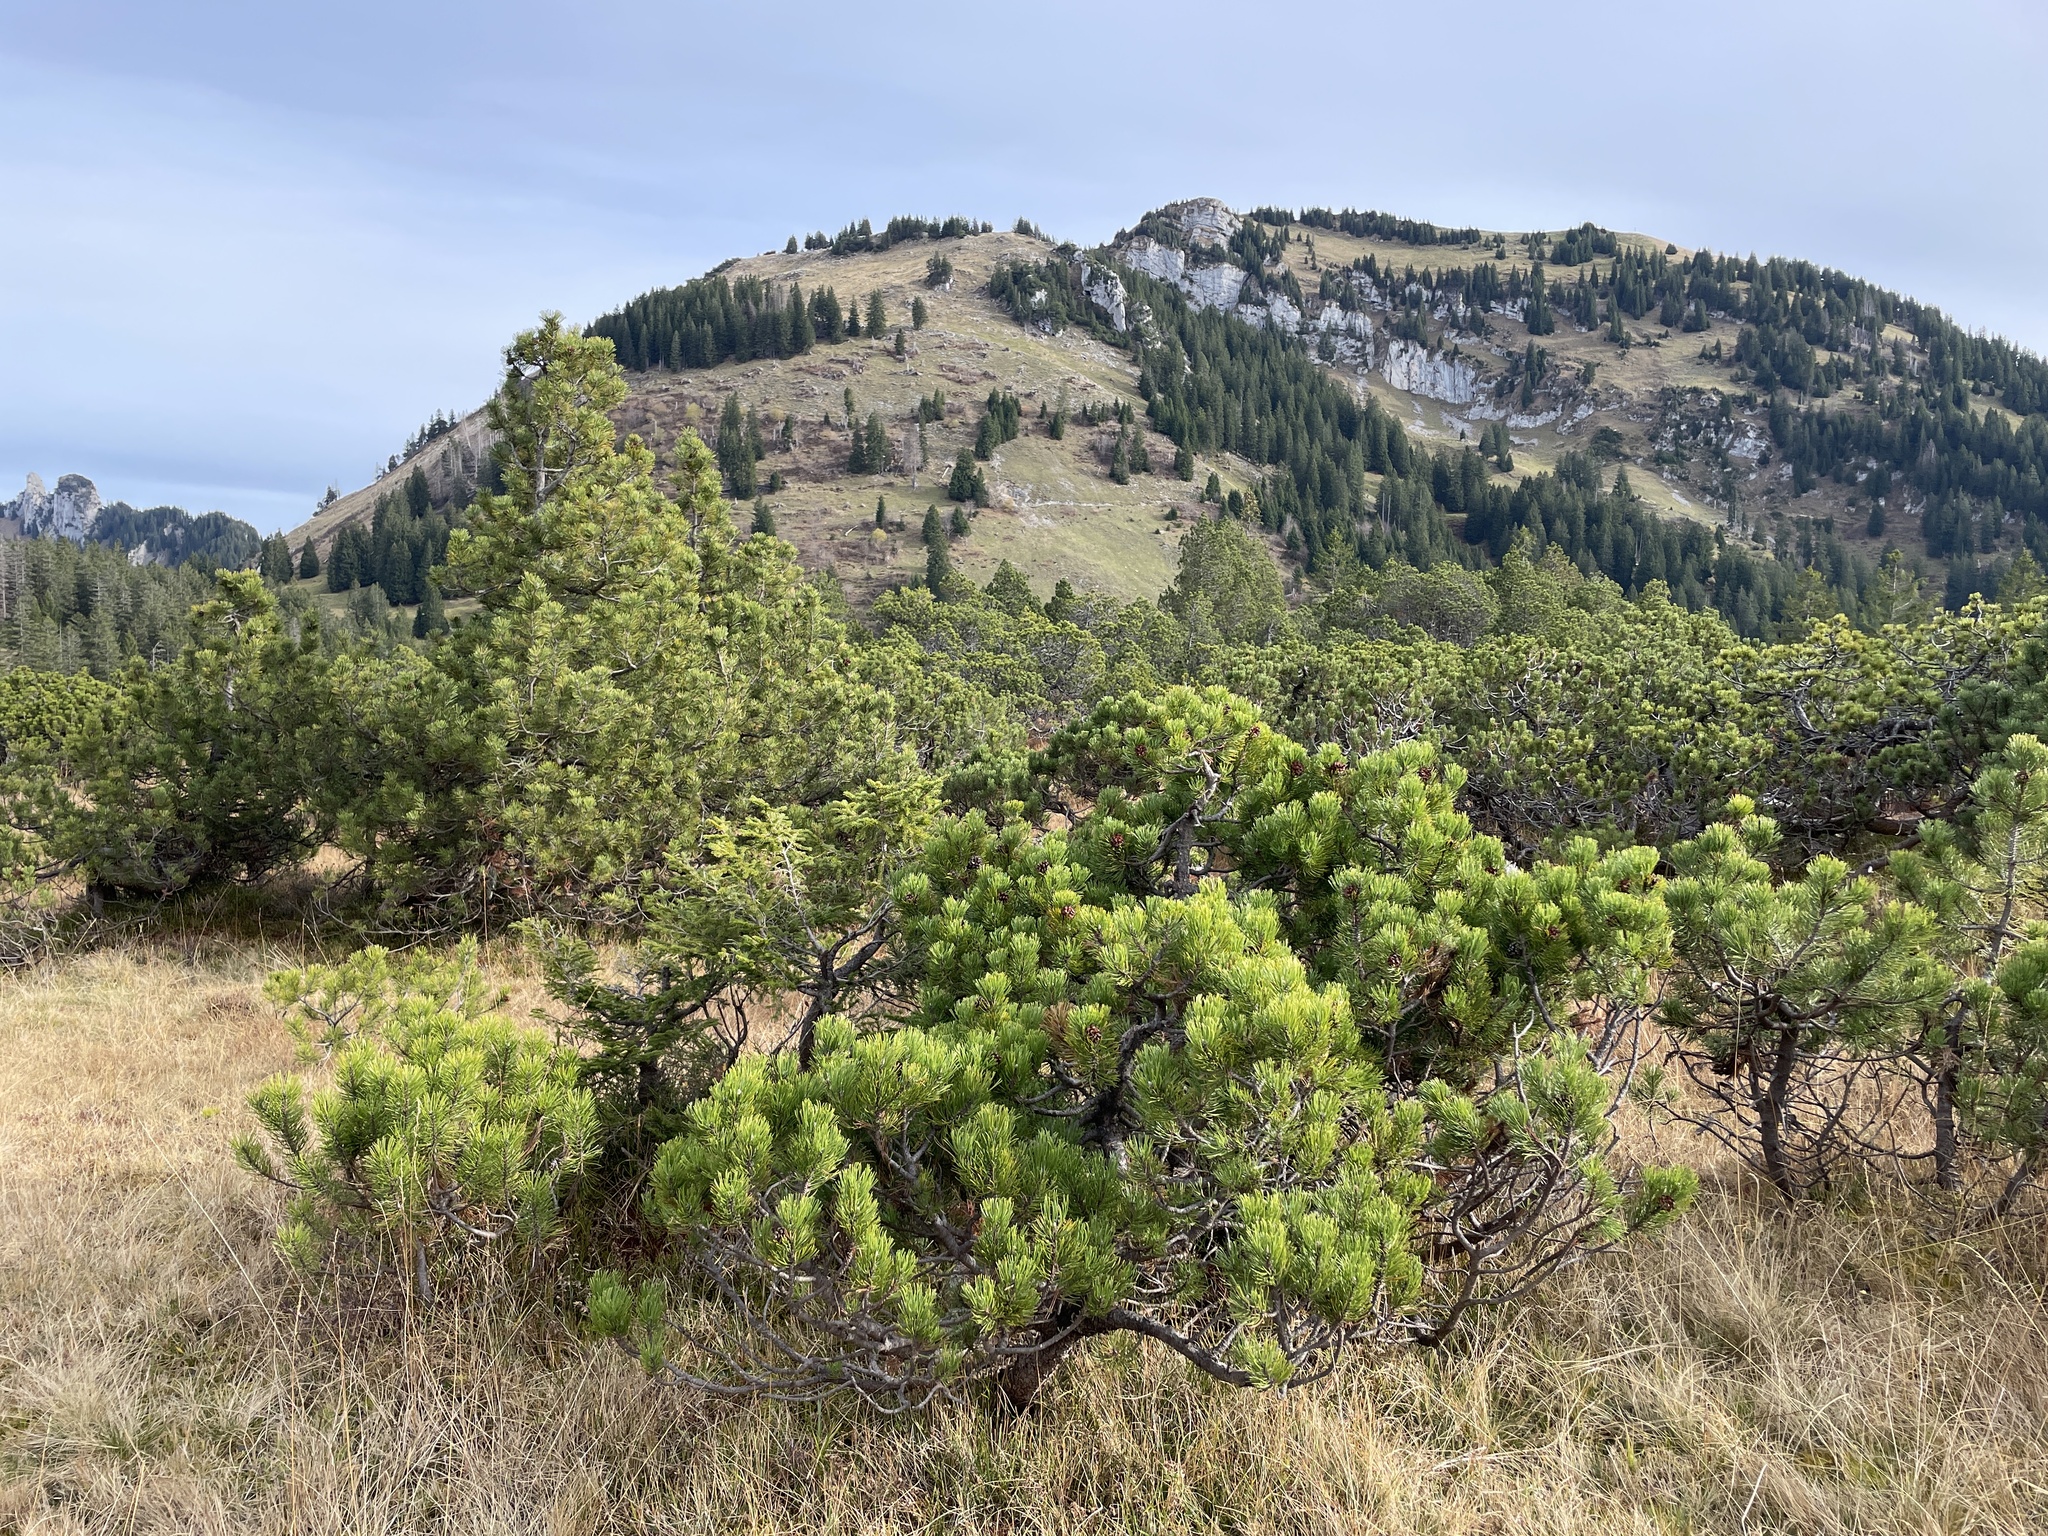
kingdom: Plantae
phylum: Tracheophyta
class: Pinopsida
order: Pinales
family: Pinaceae
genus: Pinus
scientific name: Pinus mugo
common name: Mugo pine
